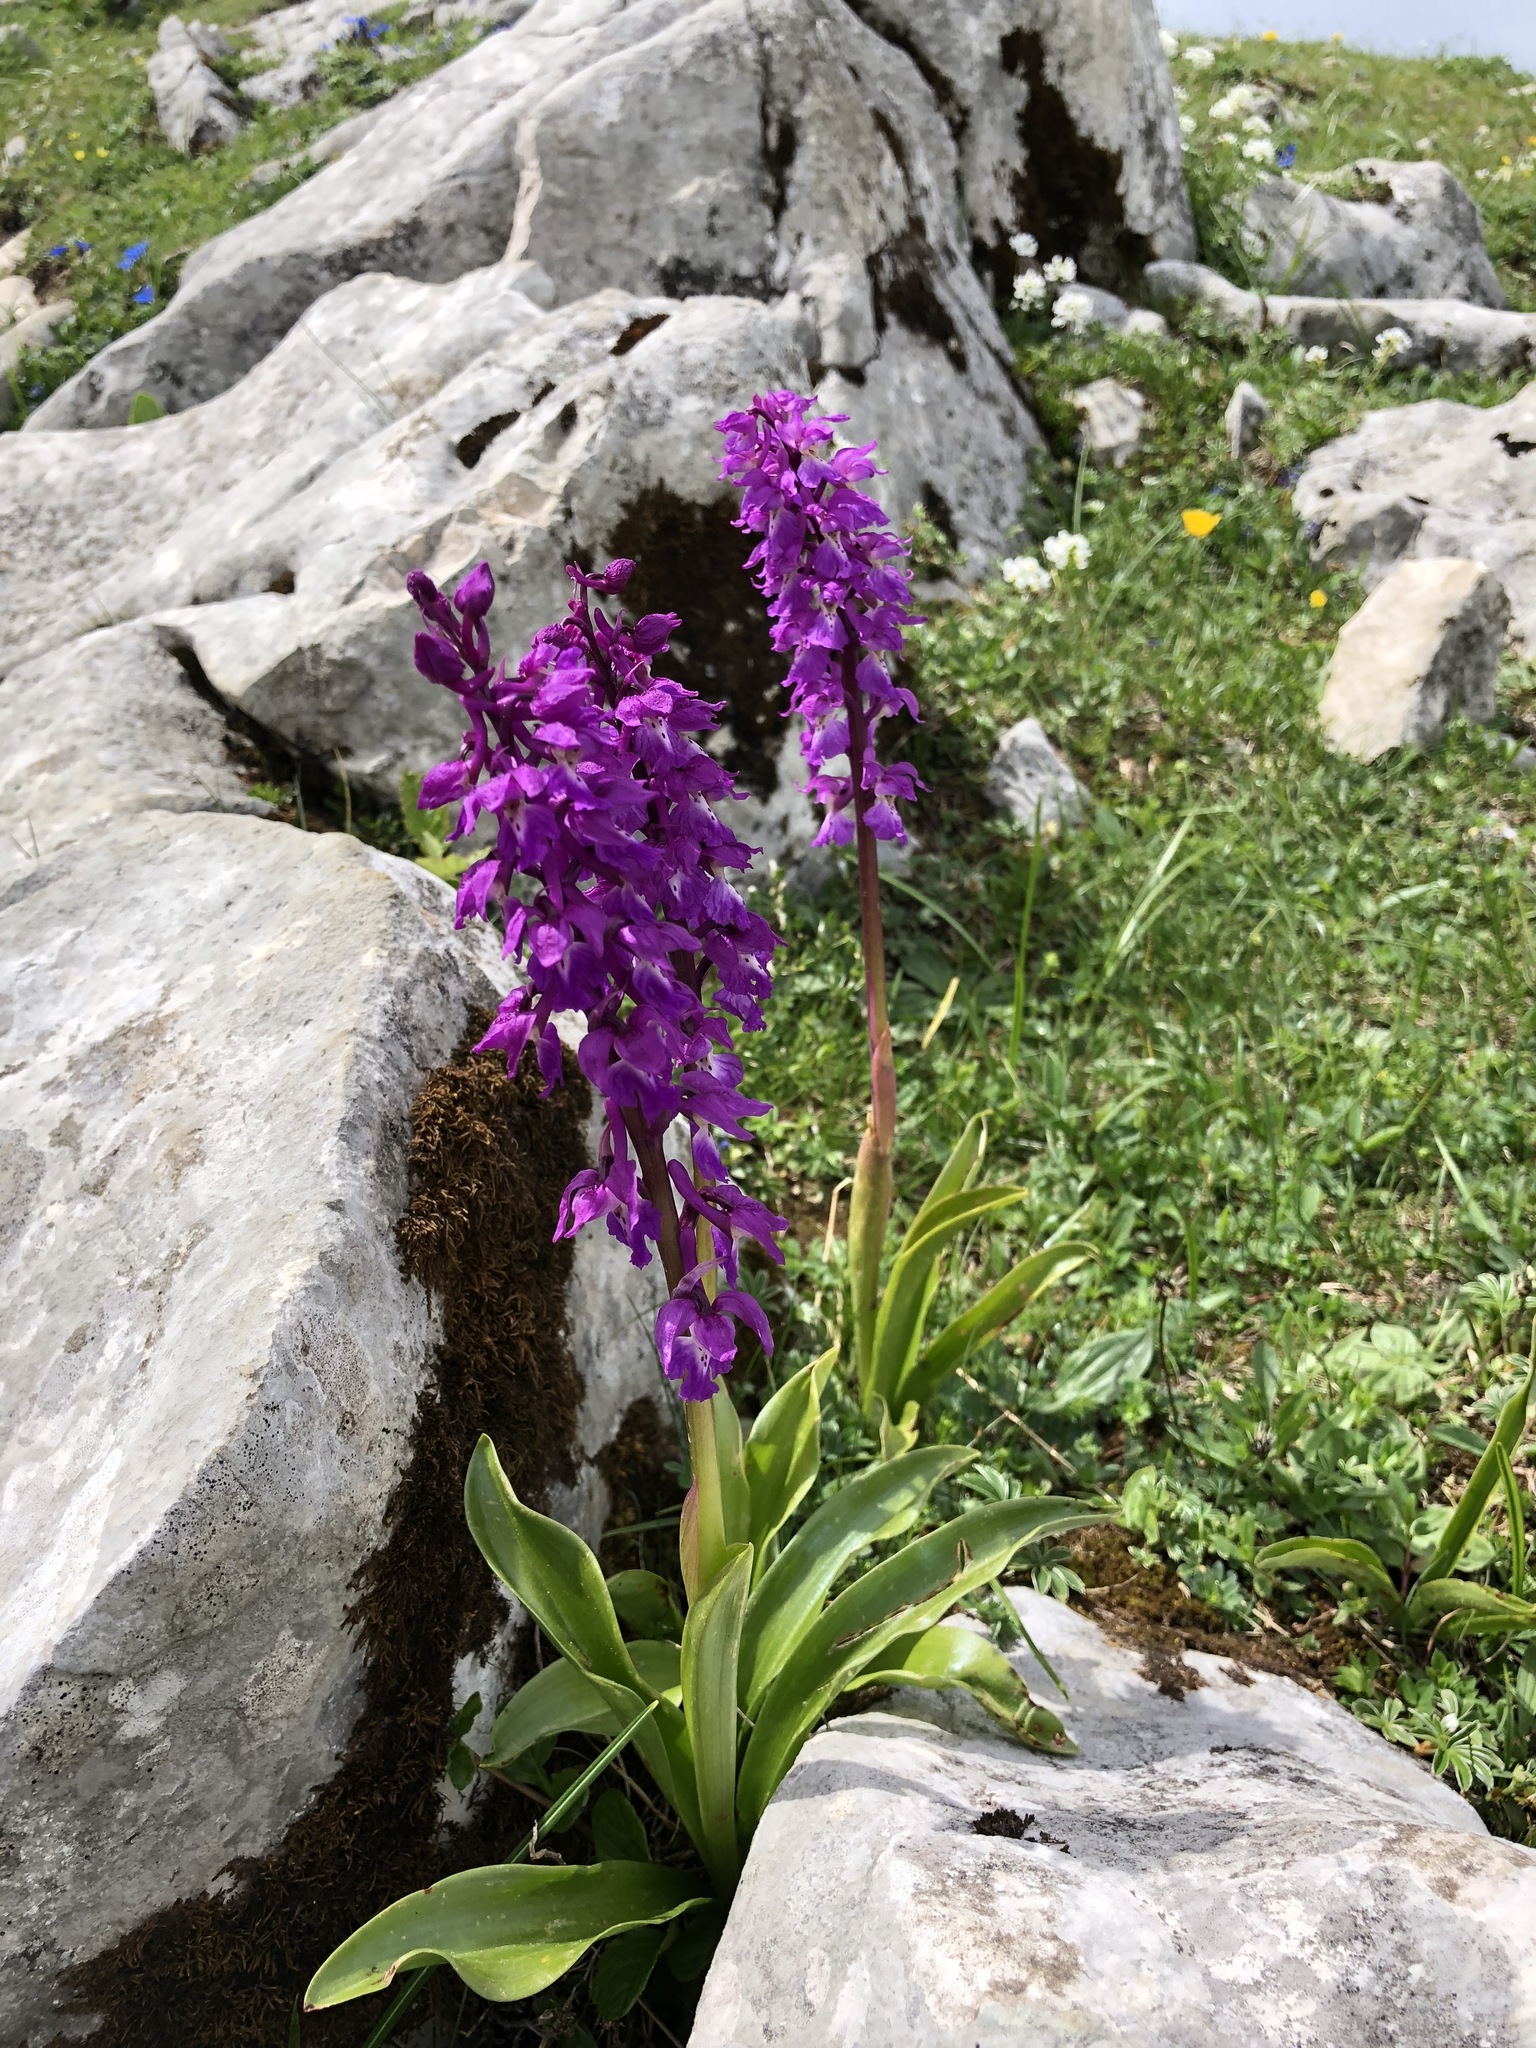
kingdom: Plantae
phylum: Tracheophyta
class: Liliopsida
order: Asparagales
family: Orchidaceae
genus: Orchis
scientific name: Orchis mascula
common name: Early-purple orchid
